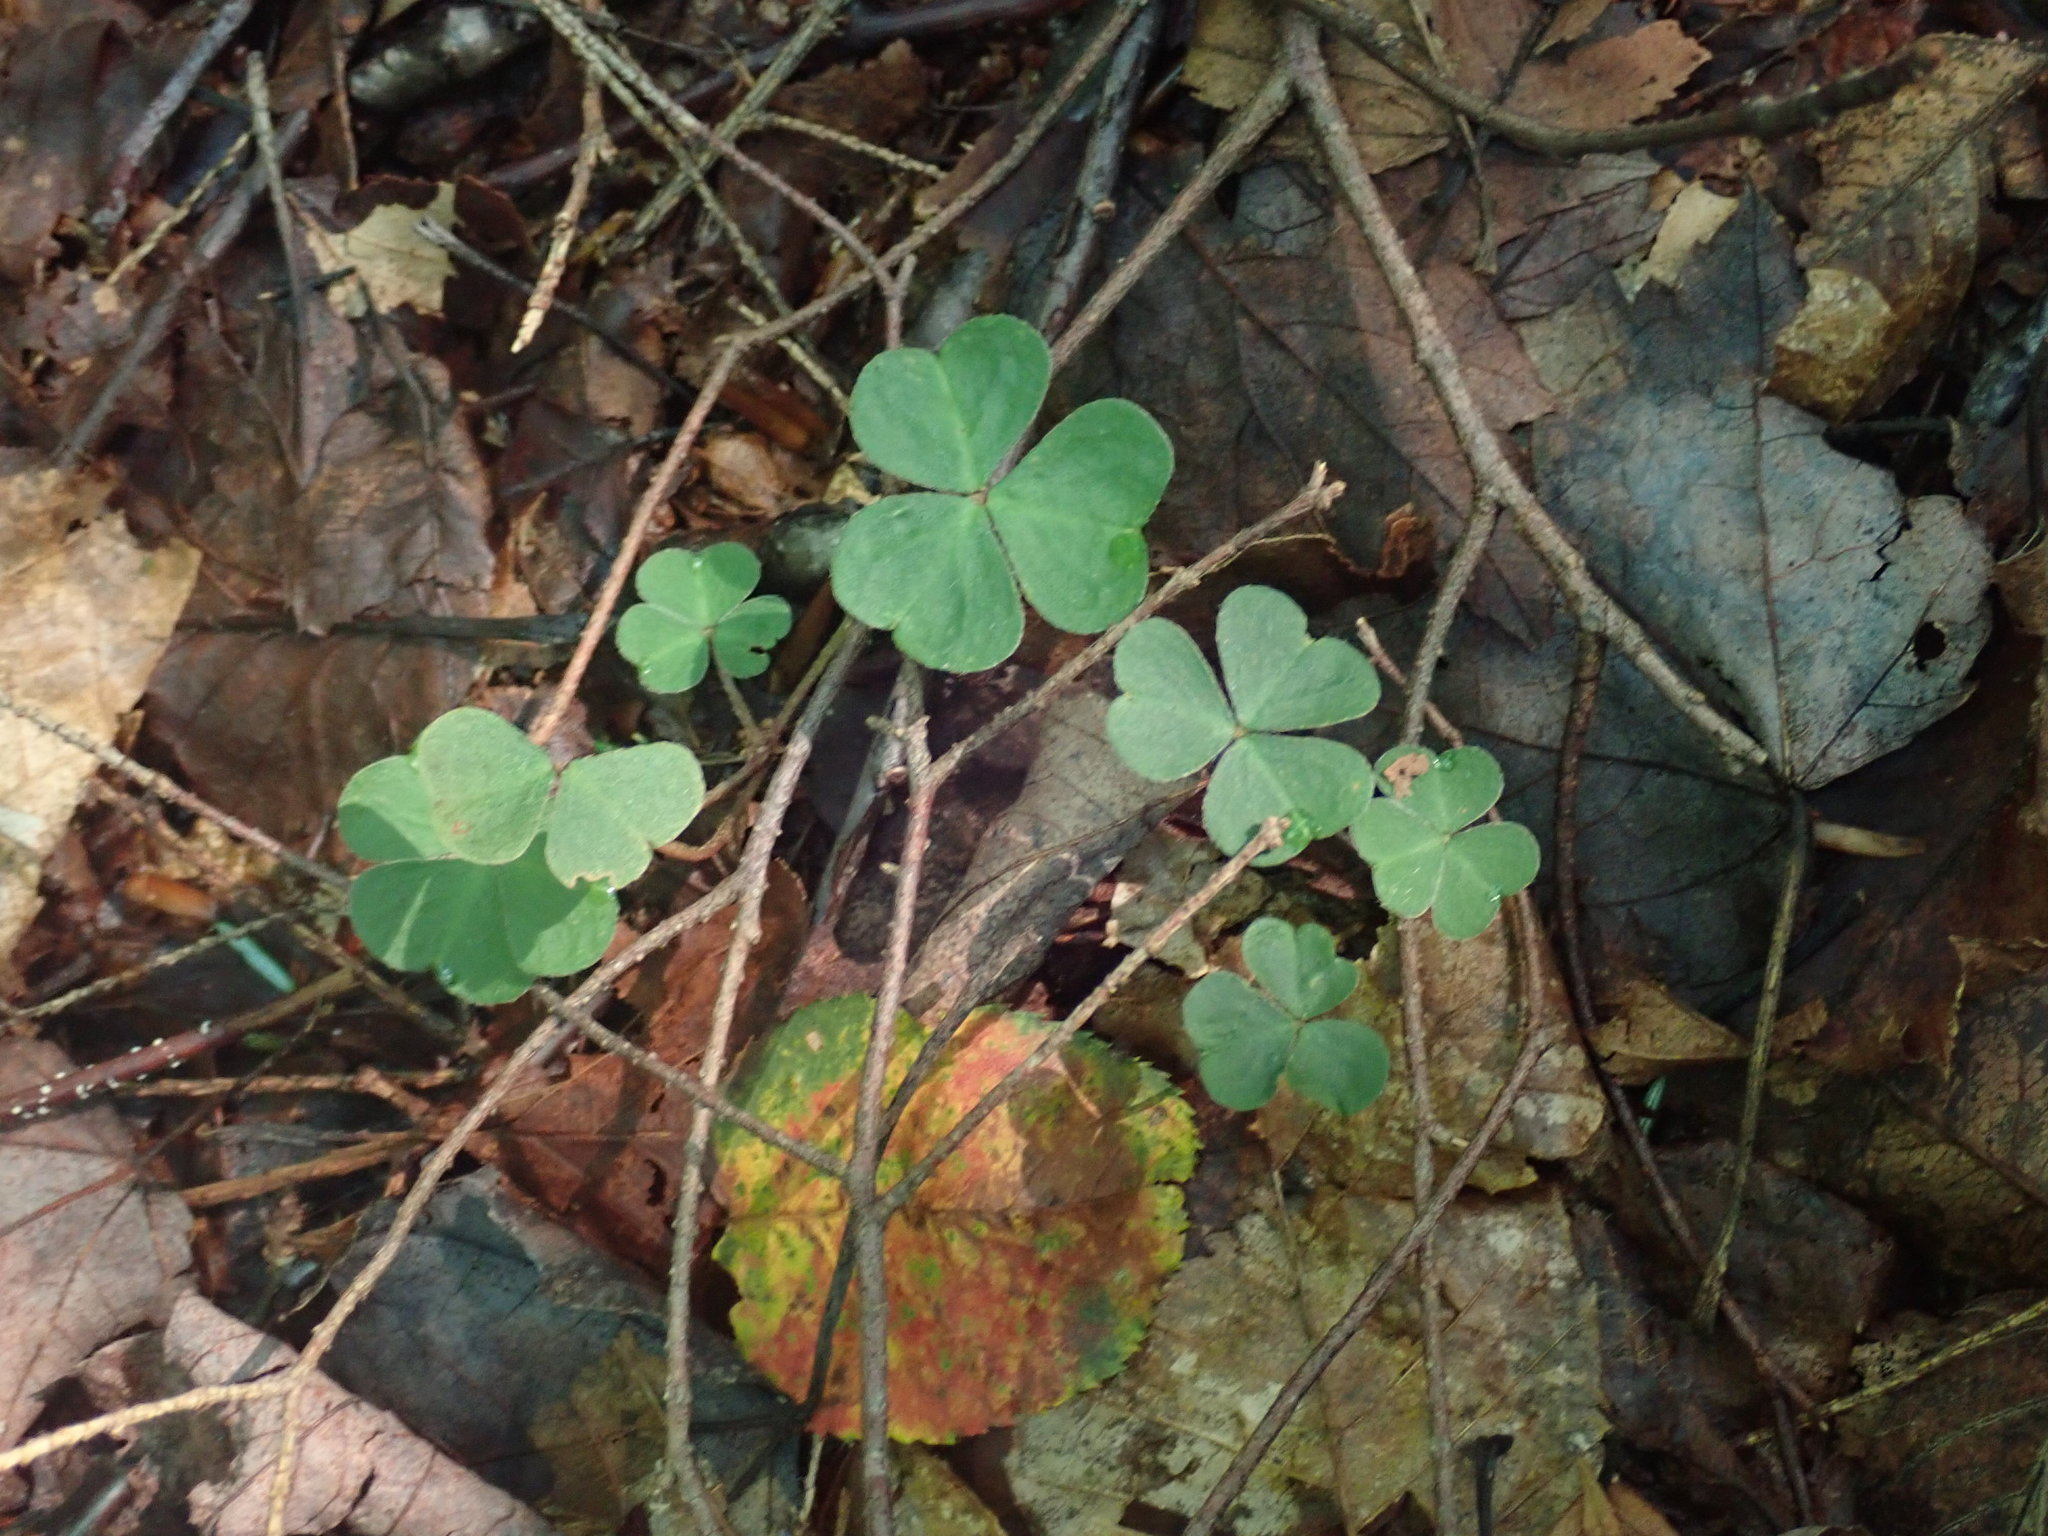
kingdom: Plantae
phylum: Tracheophyta
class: Magnoliopsida
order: Oxalidales
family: Oxalidaceae
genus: Oxalis
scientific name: Oxalis montana
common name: American wood-sorrel
